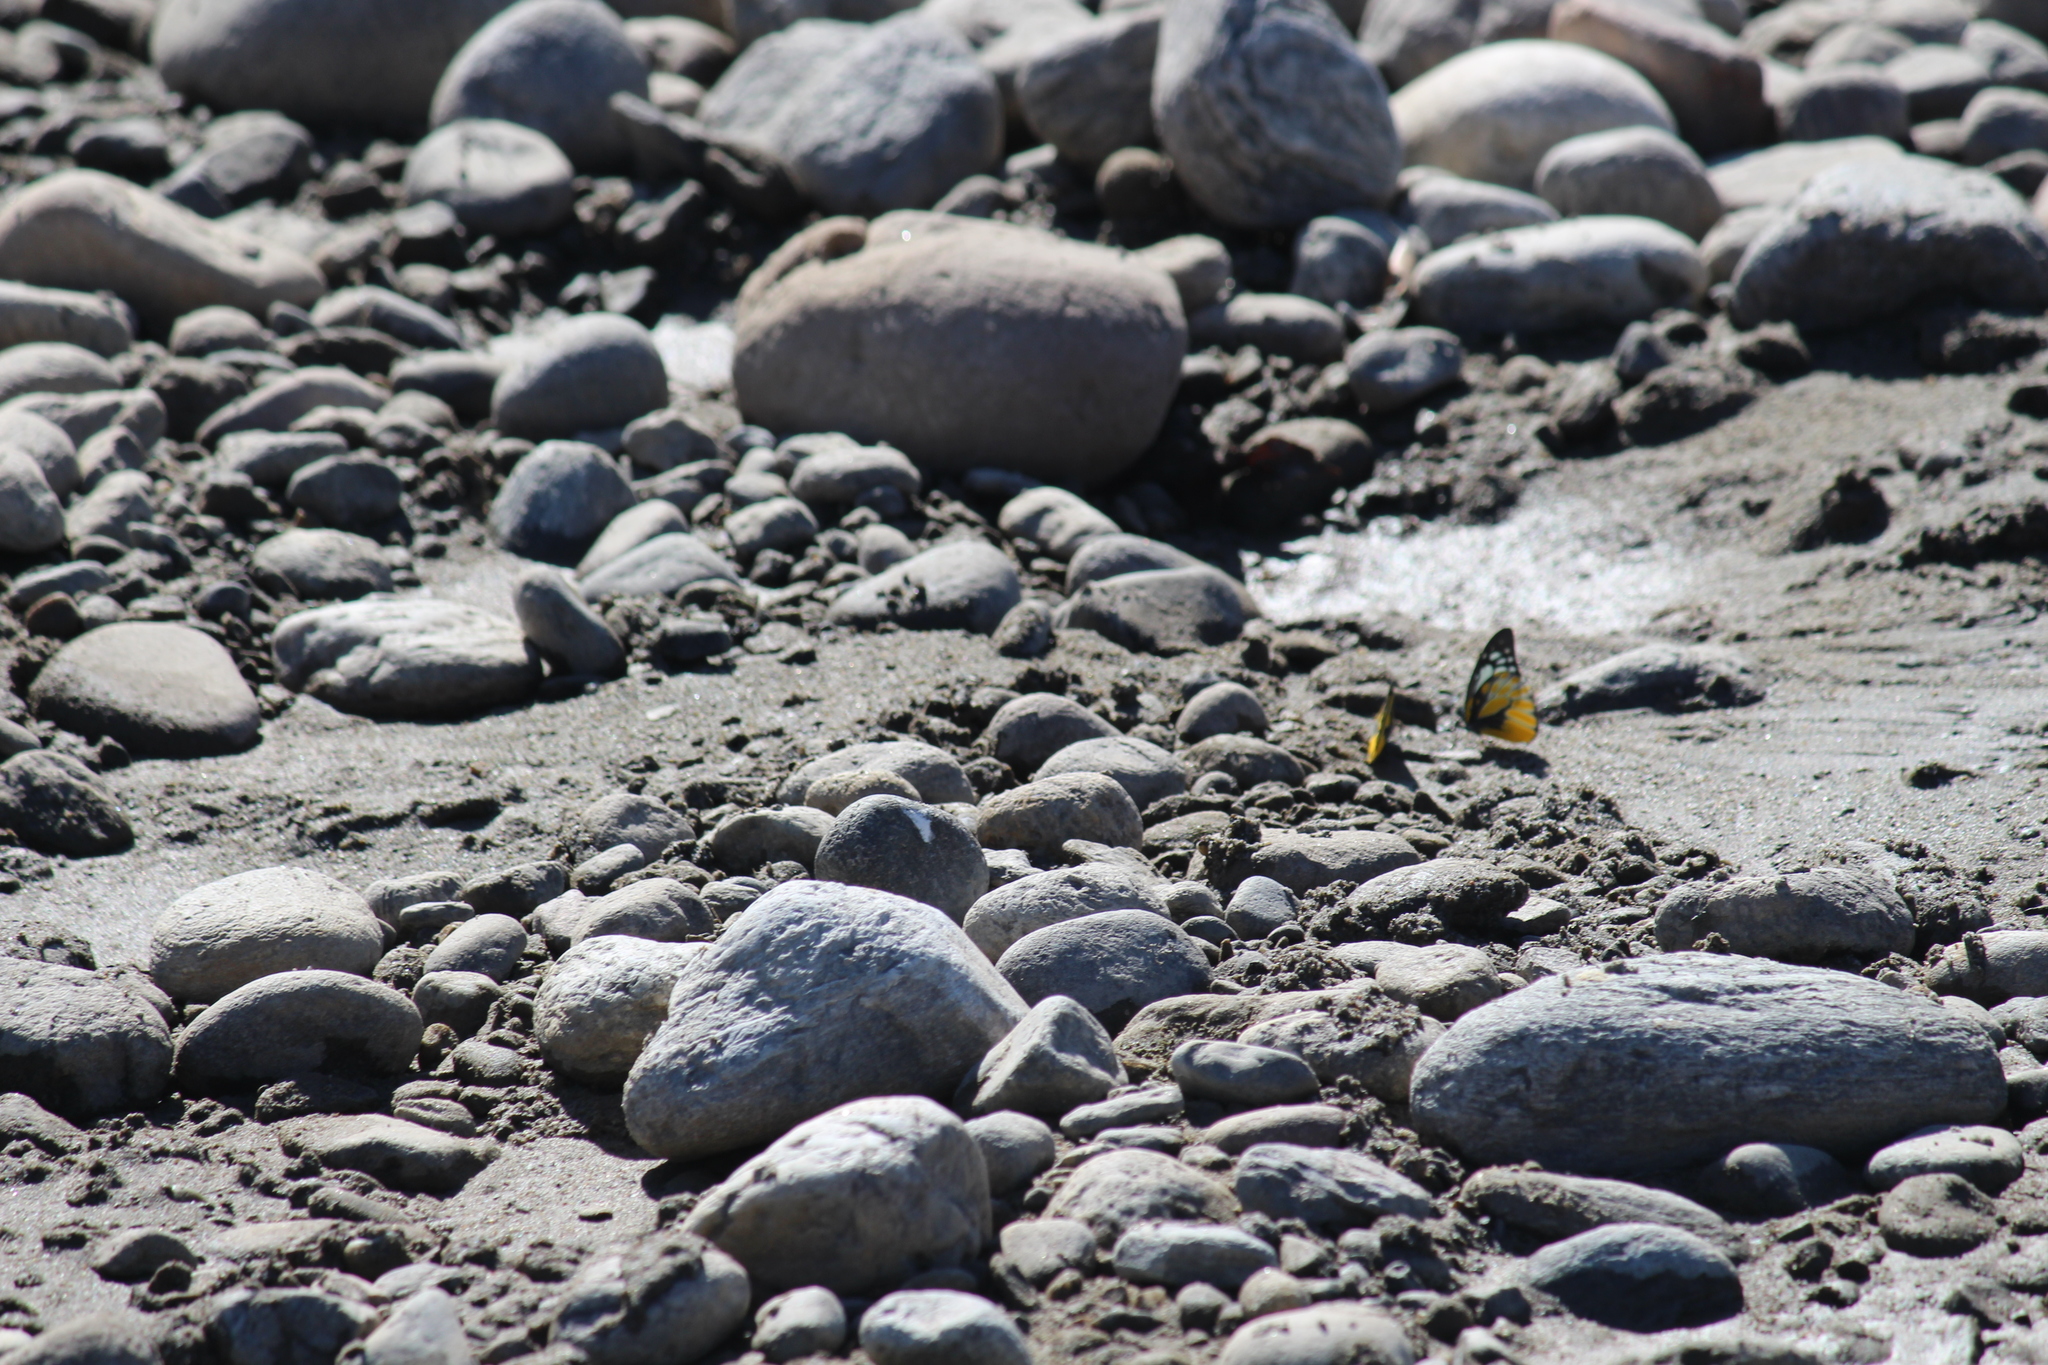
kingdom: Animalia
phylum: Arthropoda
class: Insecta
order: Lepidoptera
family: Pieridae
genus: Prioneris
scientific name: Prioneris thestylis
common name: Spotted sawtooth
